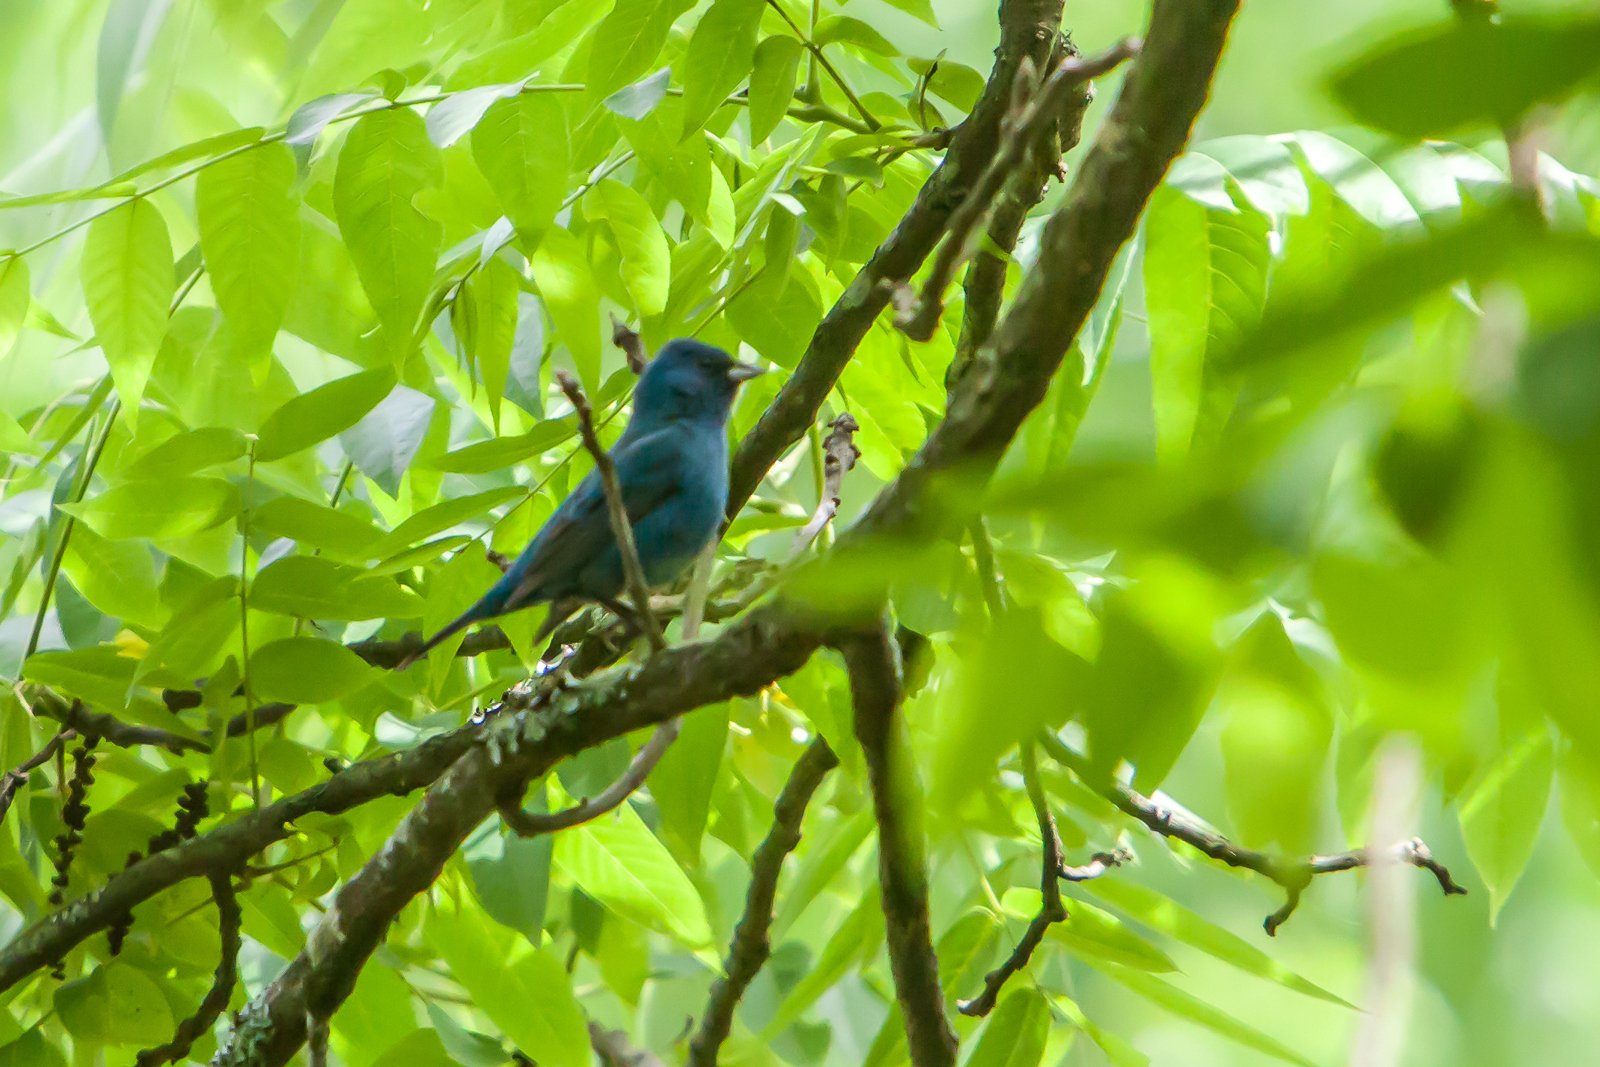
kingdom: Animalia
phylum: Chordata
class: Aves
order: Passeriformes
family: Cardinalidae
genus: Passerina
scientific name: Passerina cyanea
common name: Indigo bunting
